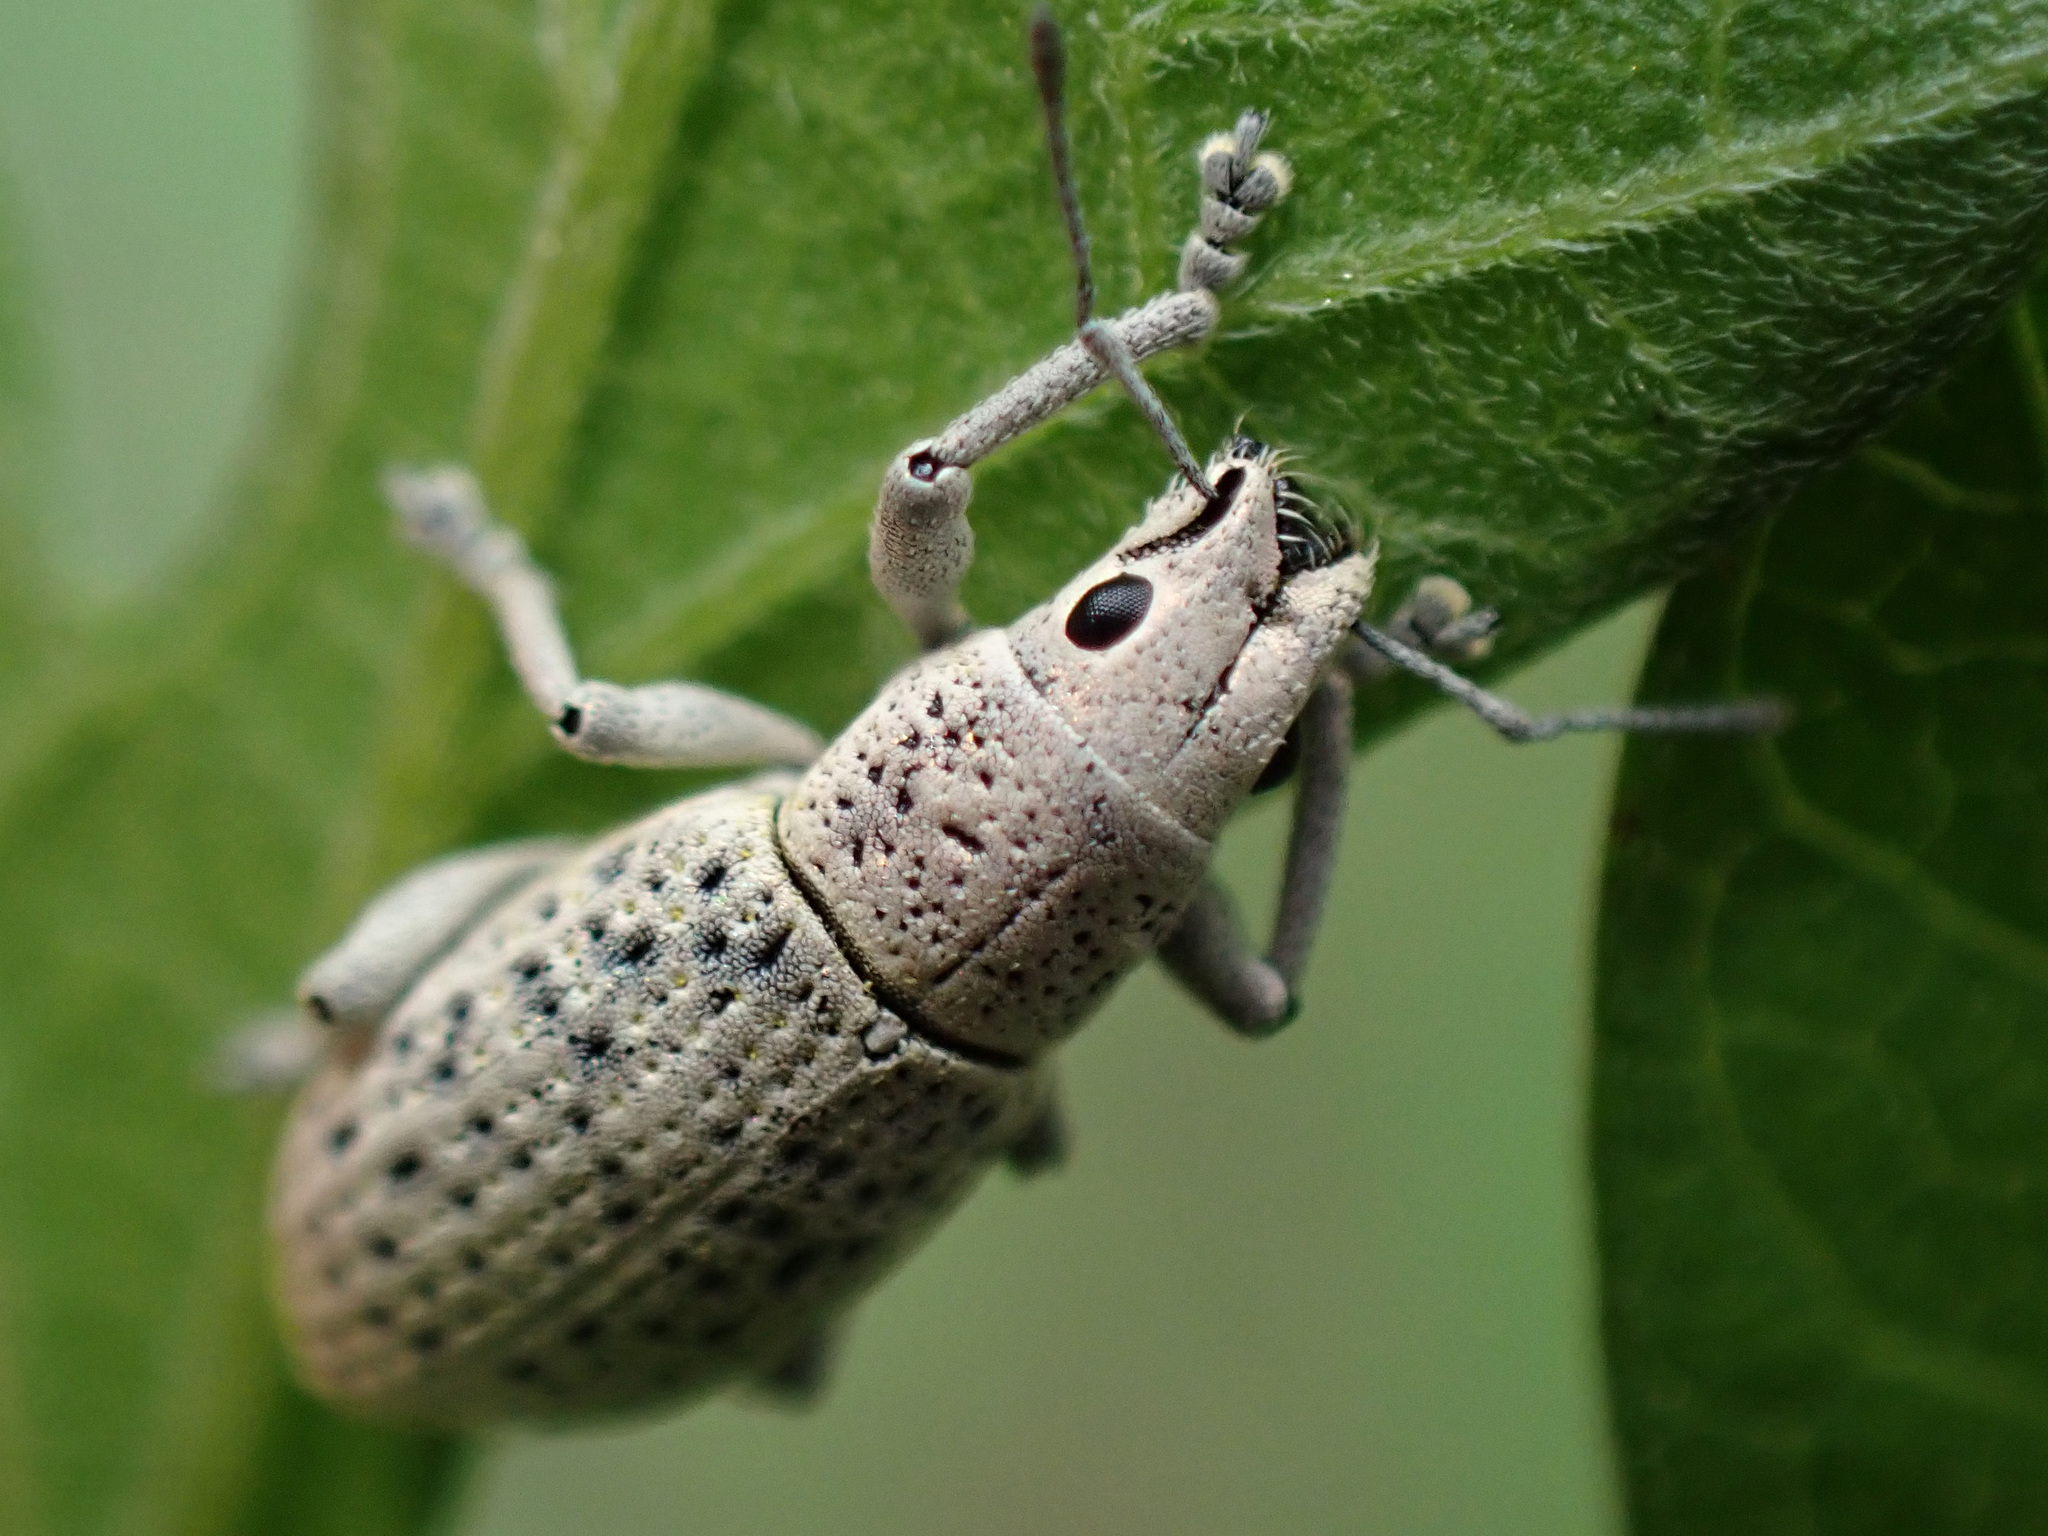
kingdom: Animalia
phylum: Arthropoda
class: Insecta
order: Coleoptera
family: Curculionidae
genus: Artipus
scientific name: Artipus floridanus
